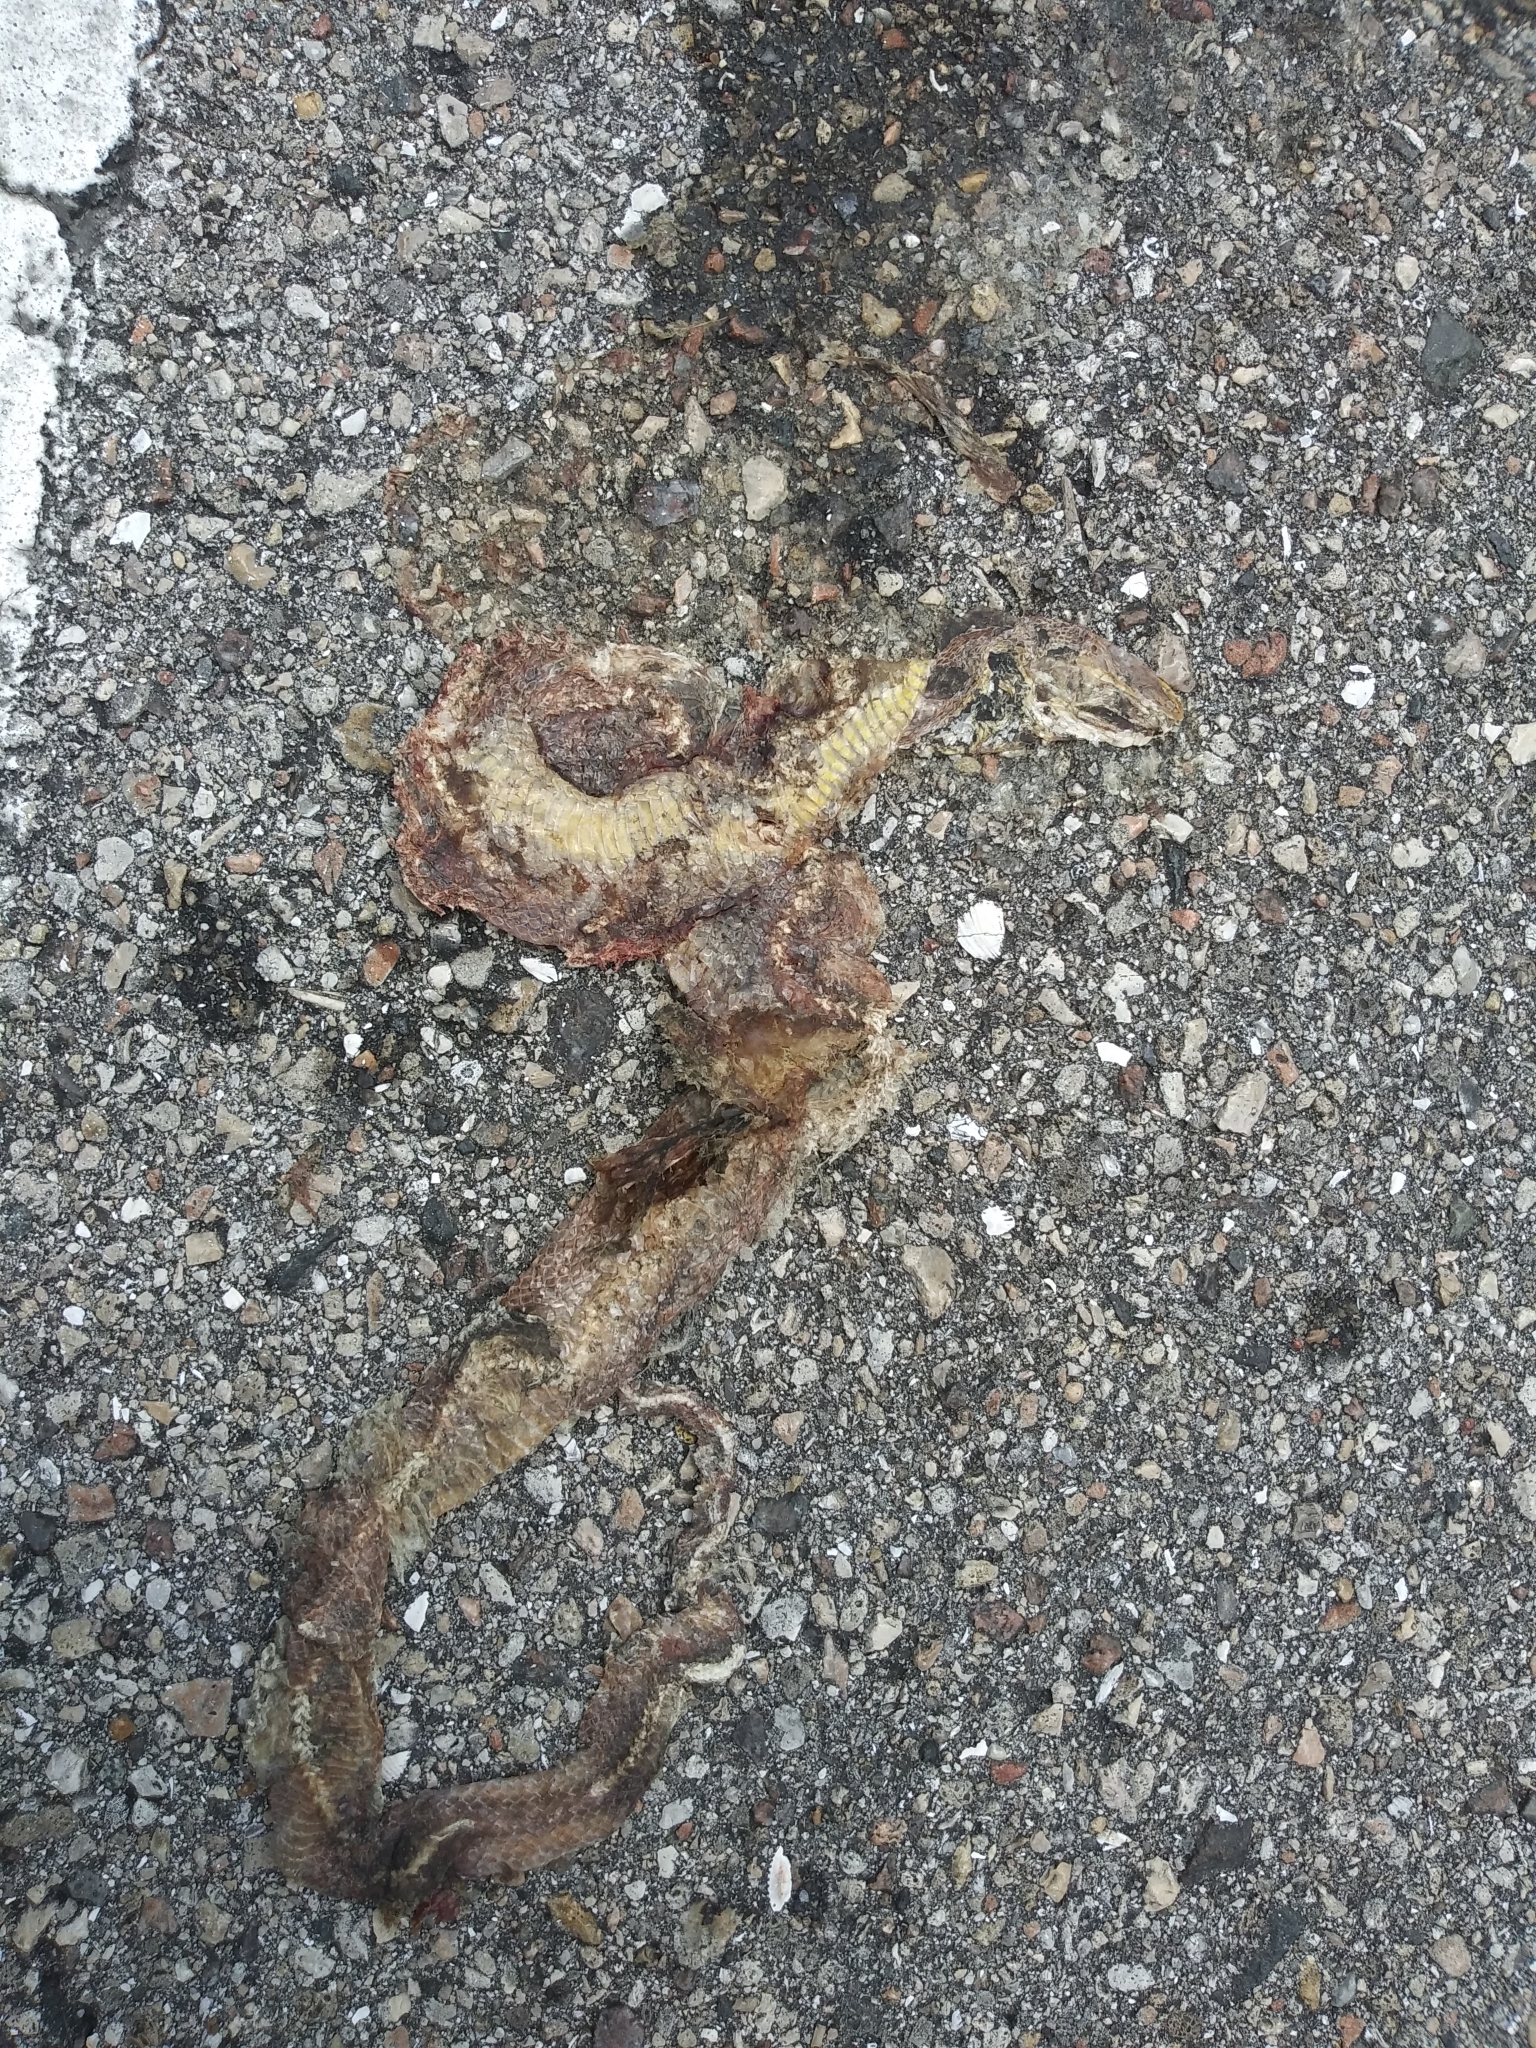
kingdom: Animalia
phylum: Chordata
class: Squamata
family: Colubridae
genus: Pantherophis
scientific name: Pantherophis alleghaniensis
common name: Eastern rat snake
